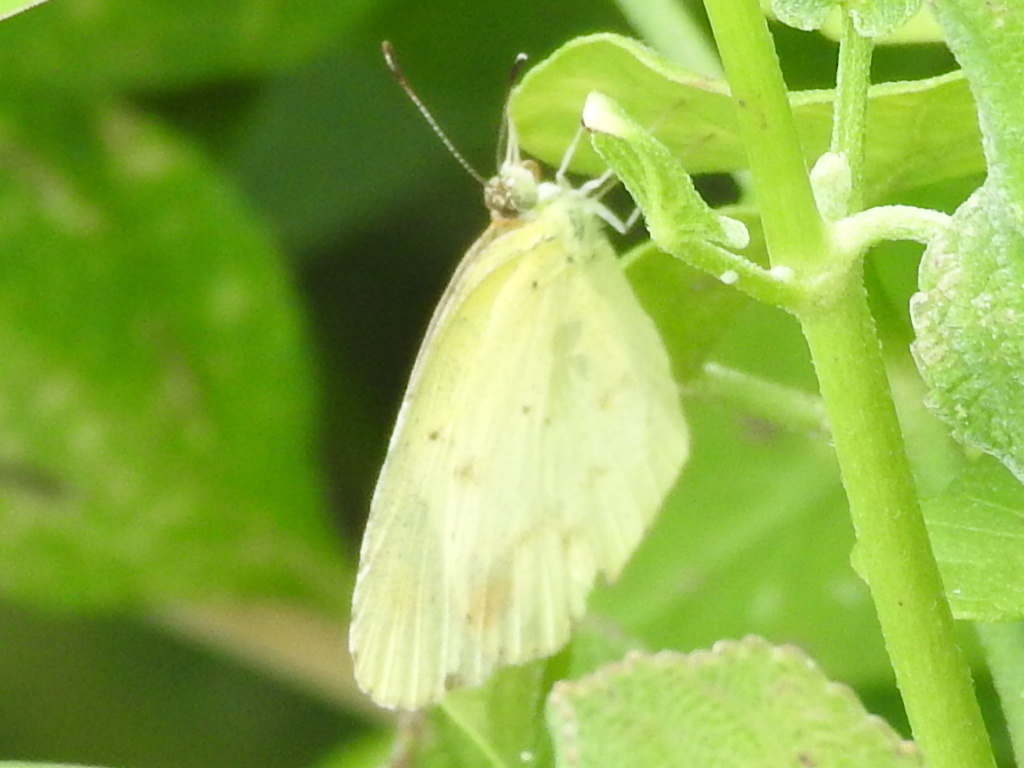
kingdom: Animalia
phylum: Arthropoda
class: Insecta
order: Lepidoptera
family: Pieridae
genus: Pyrisitia
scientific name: Pyrisitia lisa
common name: Little yellow
